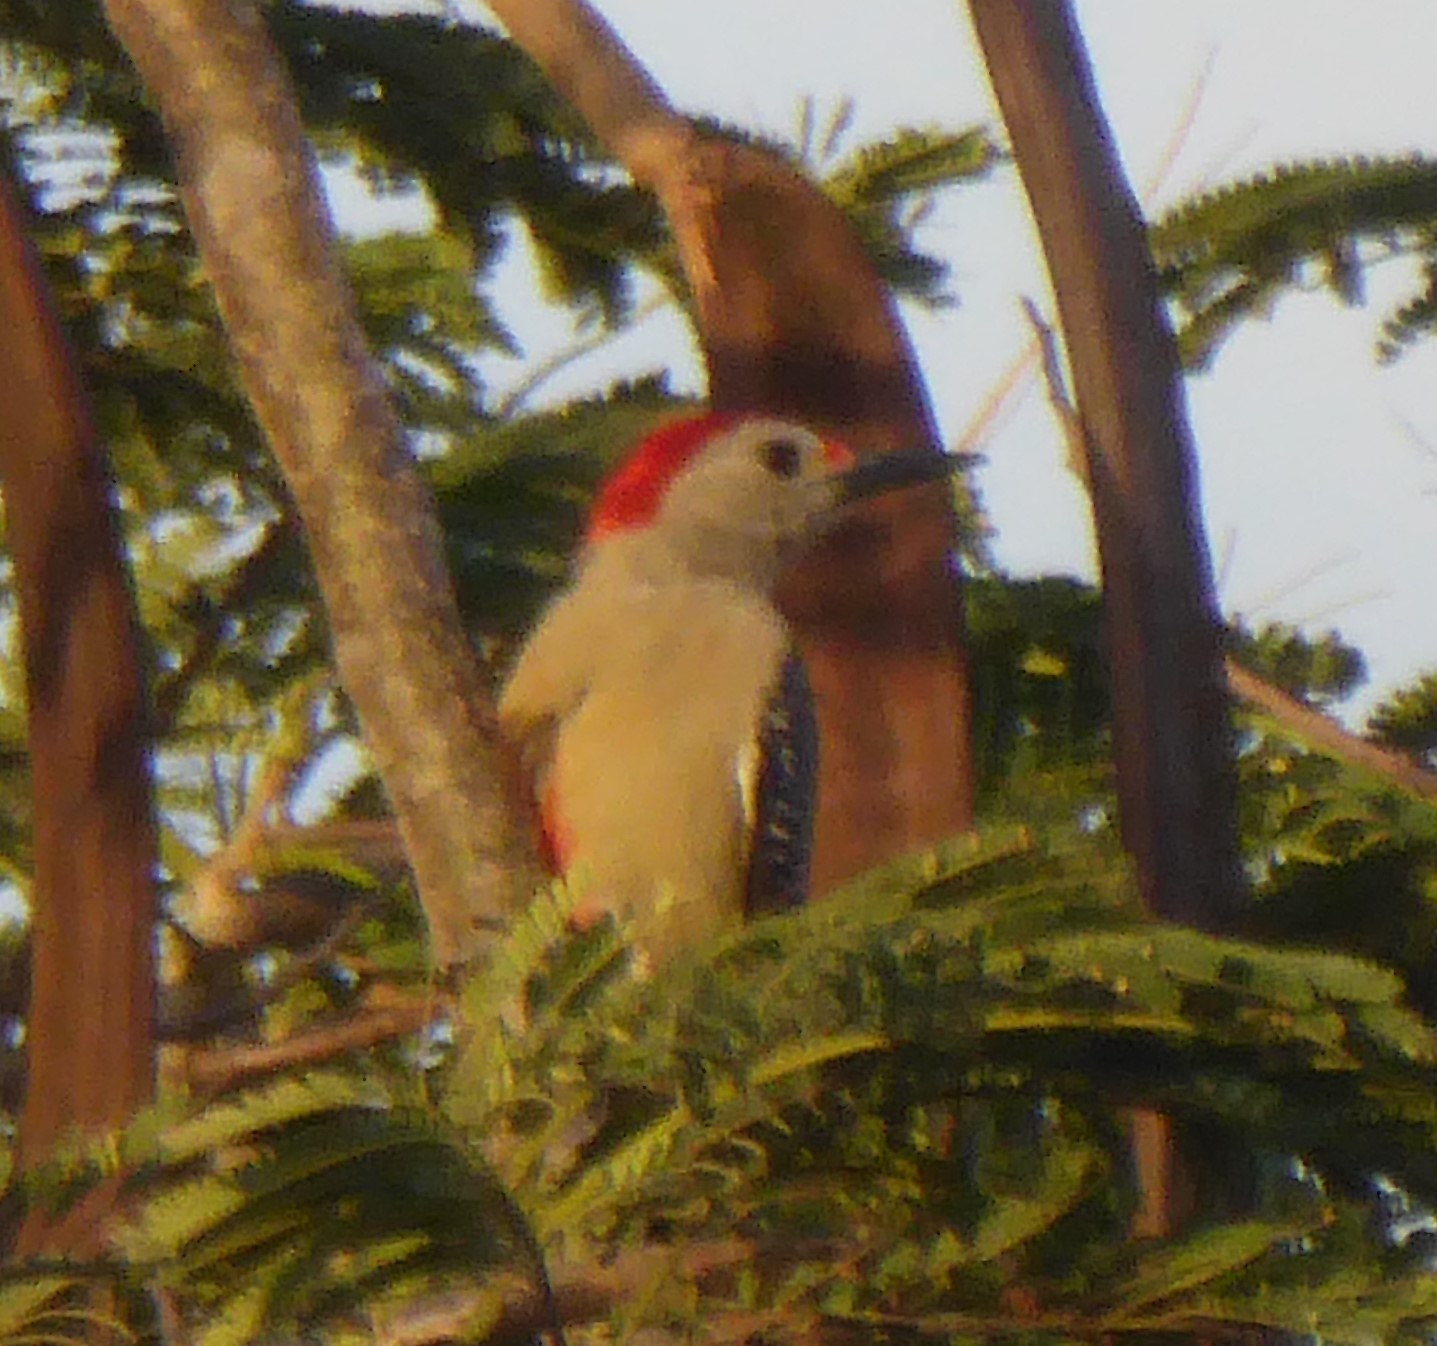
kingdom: Animalia
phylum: Chordata
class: Aves
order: Piciformes
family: Picidae
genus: Melanerpes
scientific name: Melanerpes aurifrons
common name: Golden-fronted woodpecker
